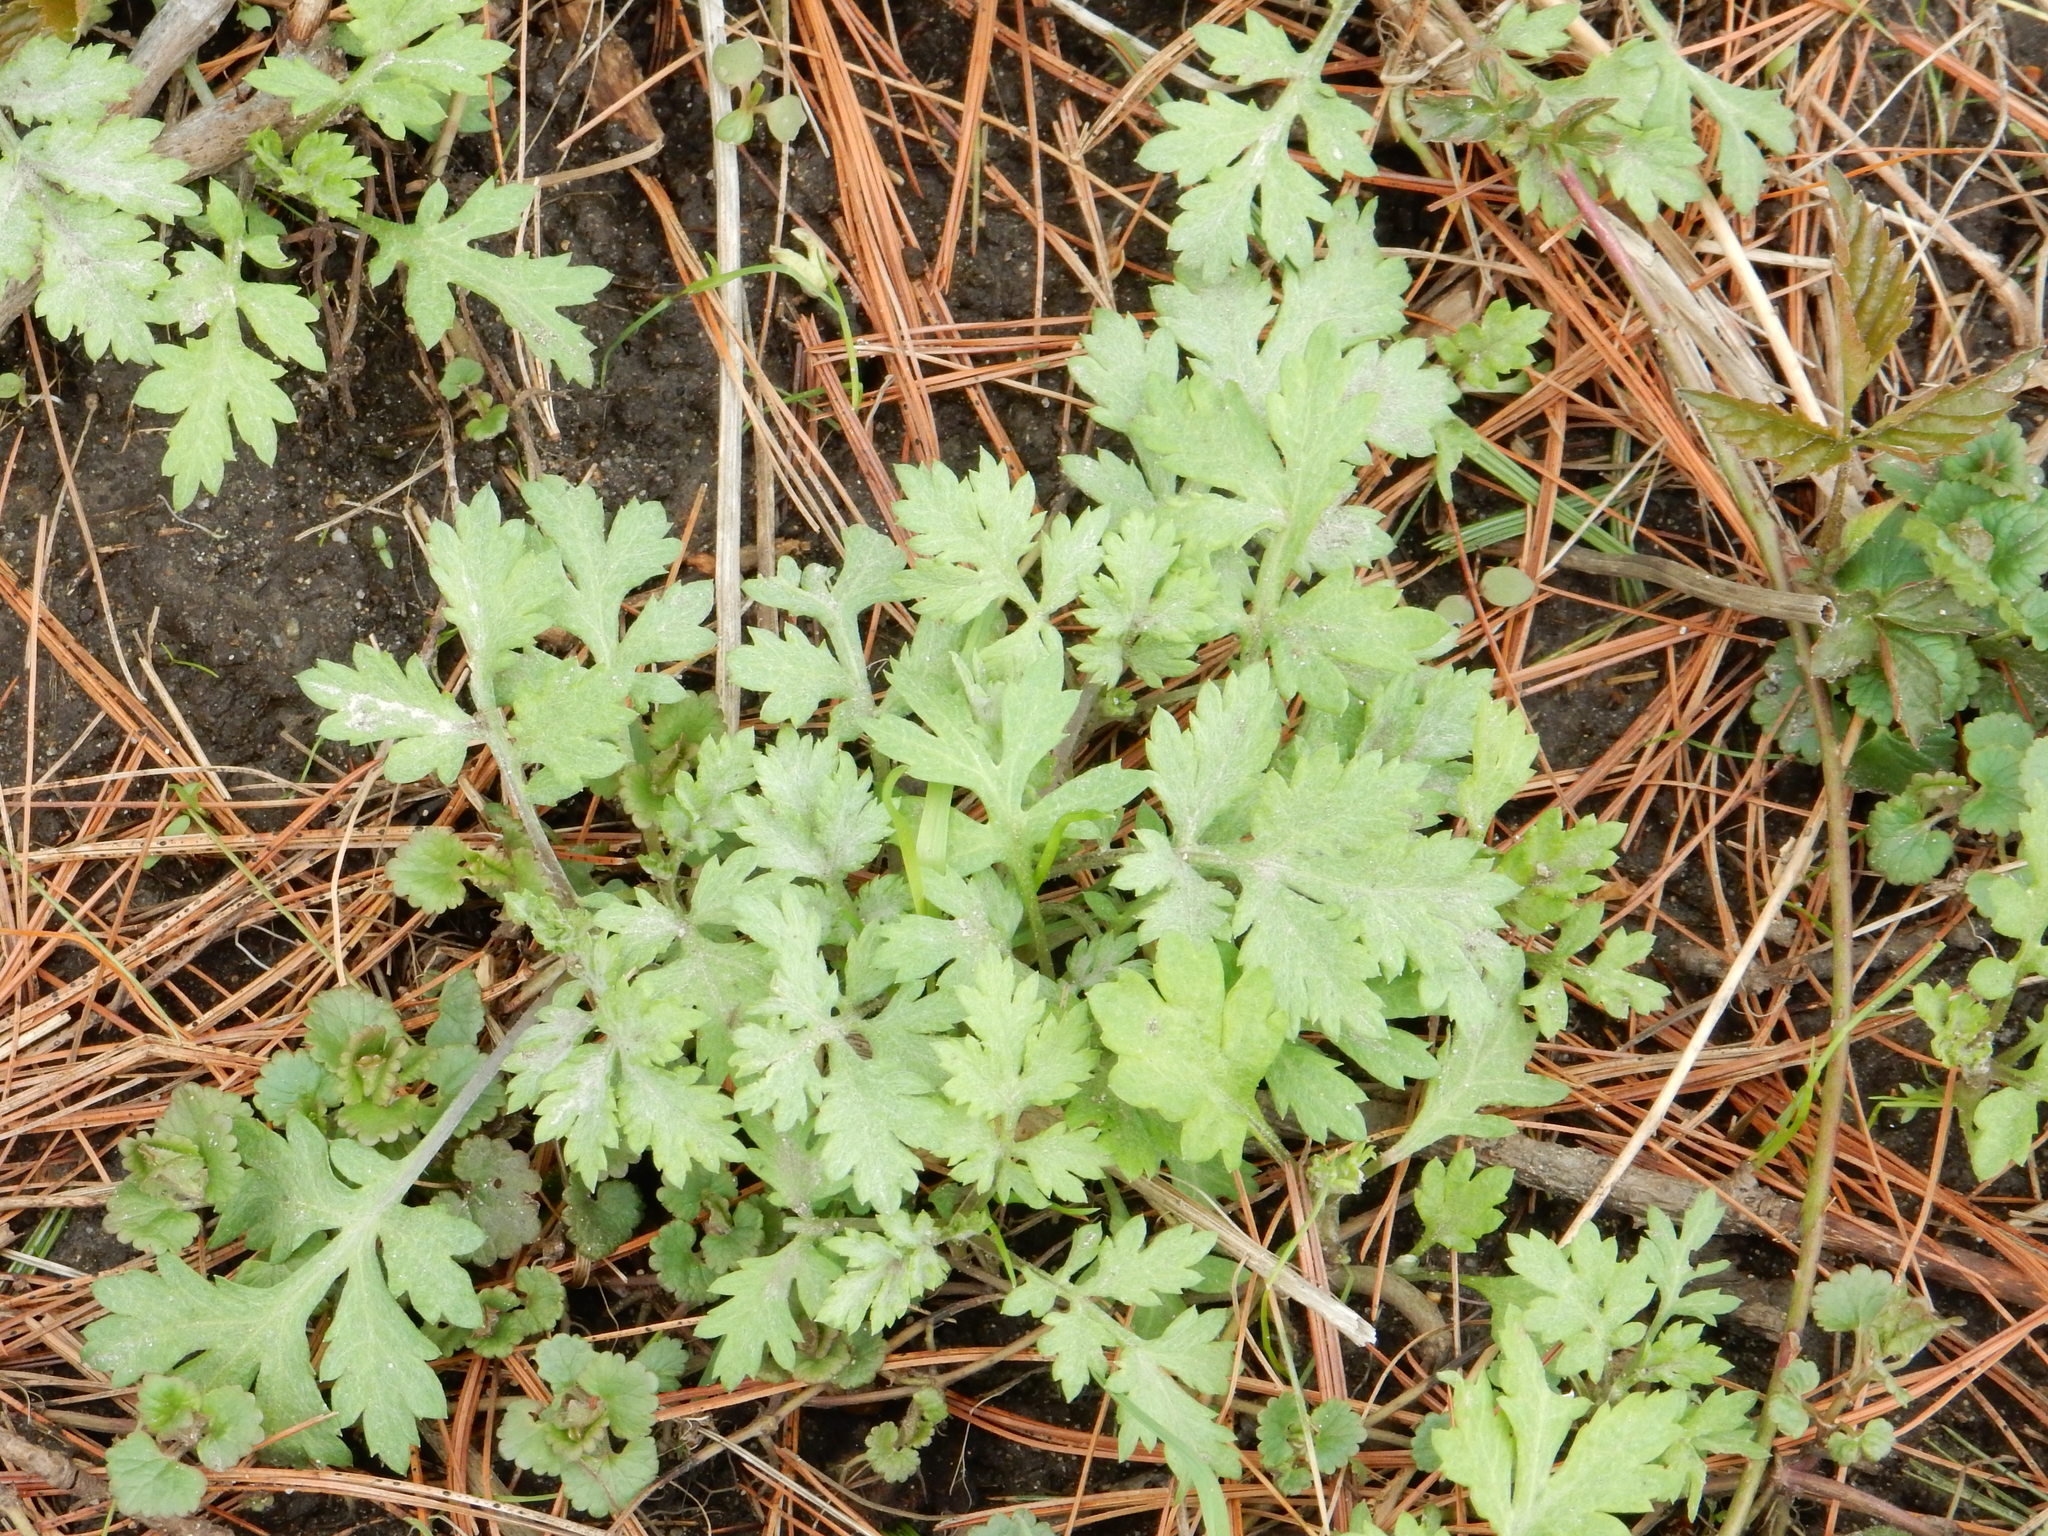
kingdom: Plantae
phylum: Tracheophyta
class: Magnoliopsida
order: Asterales
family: Asteraceae
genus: Artemisia
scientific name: Artemisia vulgaris
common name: Mugwort
